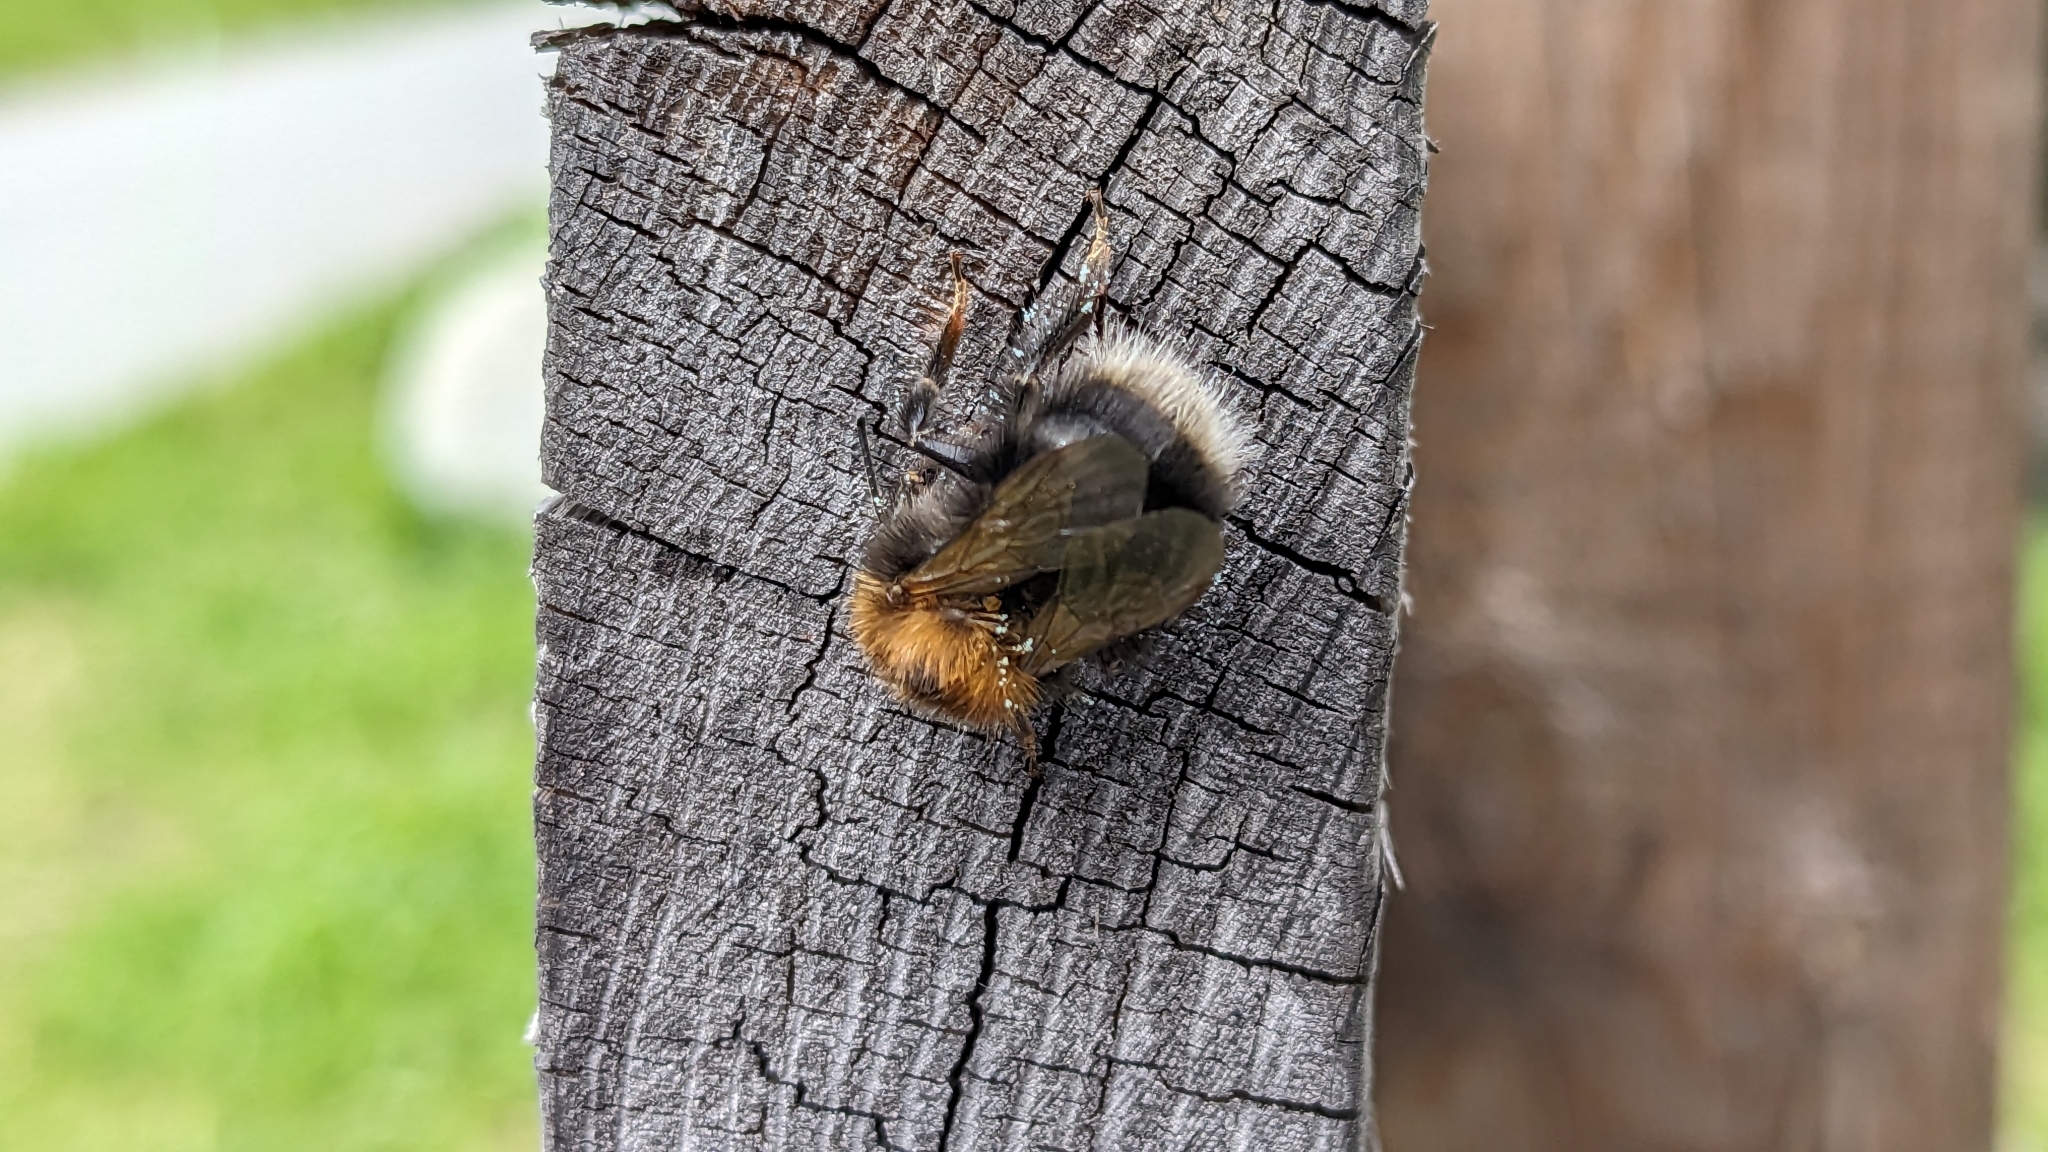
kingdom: Animalia
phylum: Arthropoda
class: Insecta
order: Hymenoptera
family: Apidae
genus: Bombus
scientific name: Bombus hypnorum
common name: New garden bumblebee
